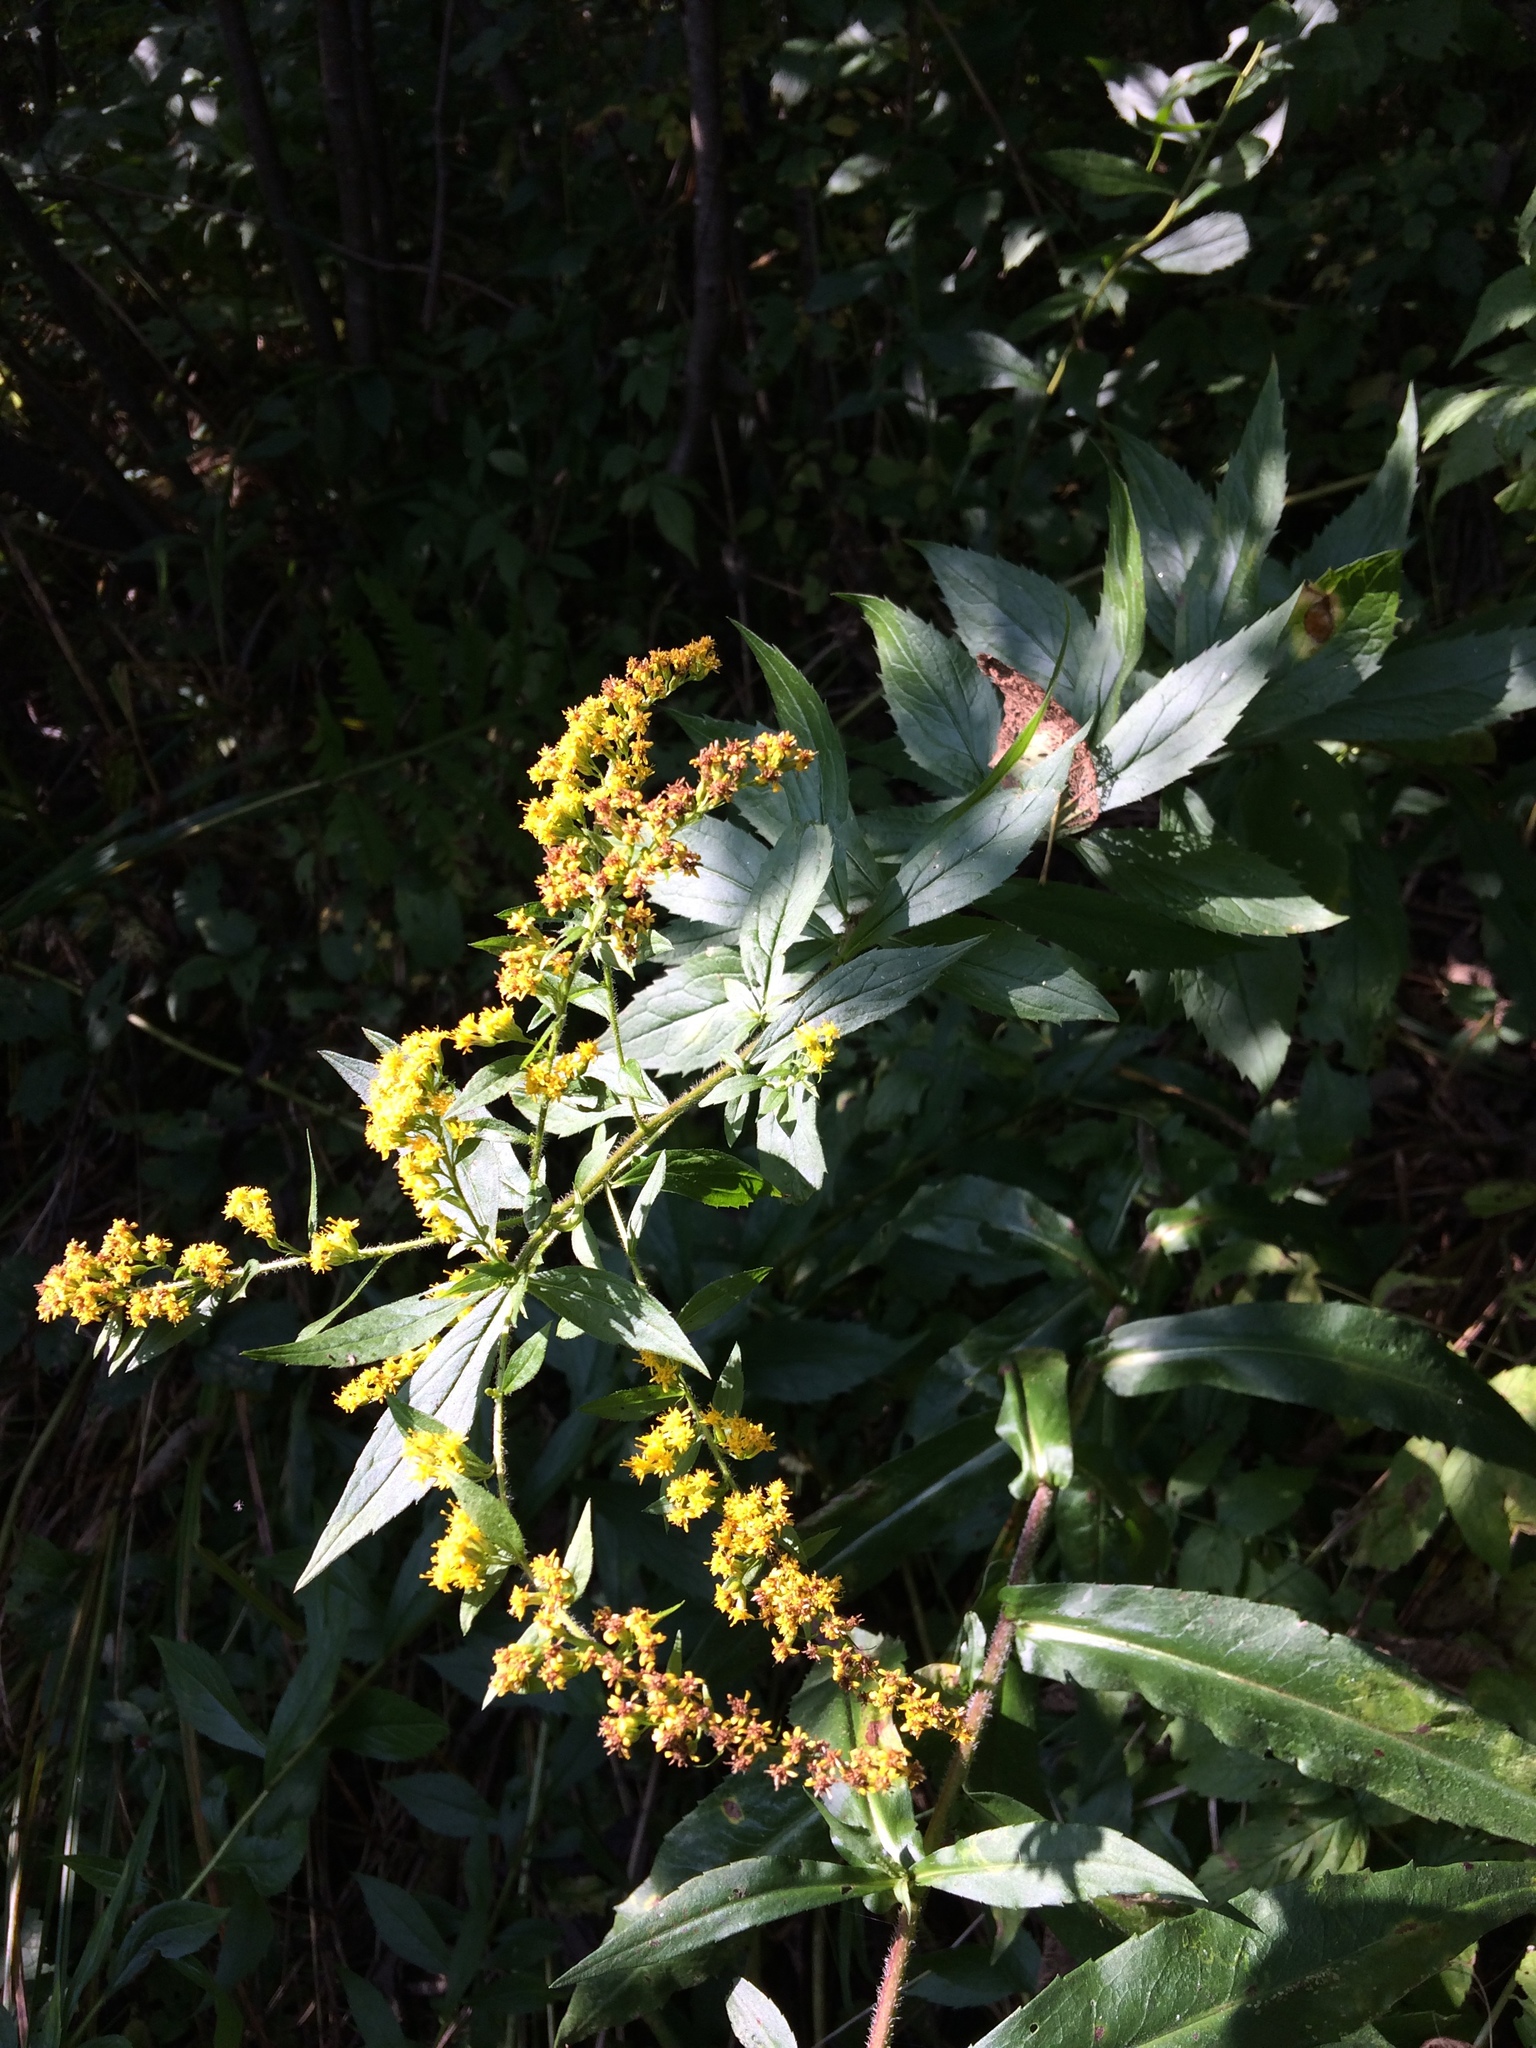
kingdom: Plantae
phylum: Tracheophyta
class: Magnoliopsida
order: Asterales
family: Asteraceae
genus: Solidago
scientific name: Solidago rugosa
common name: Rough-stemmed goldenrod
